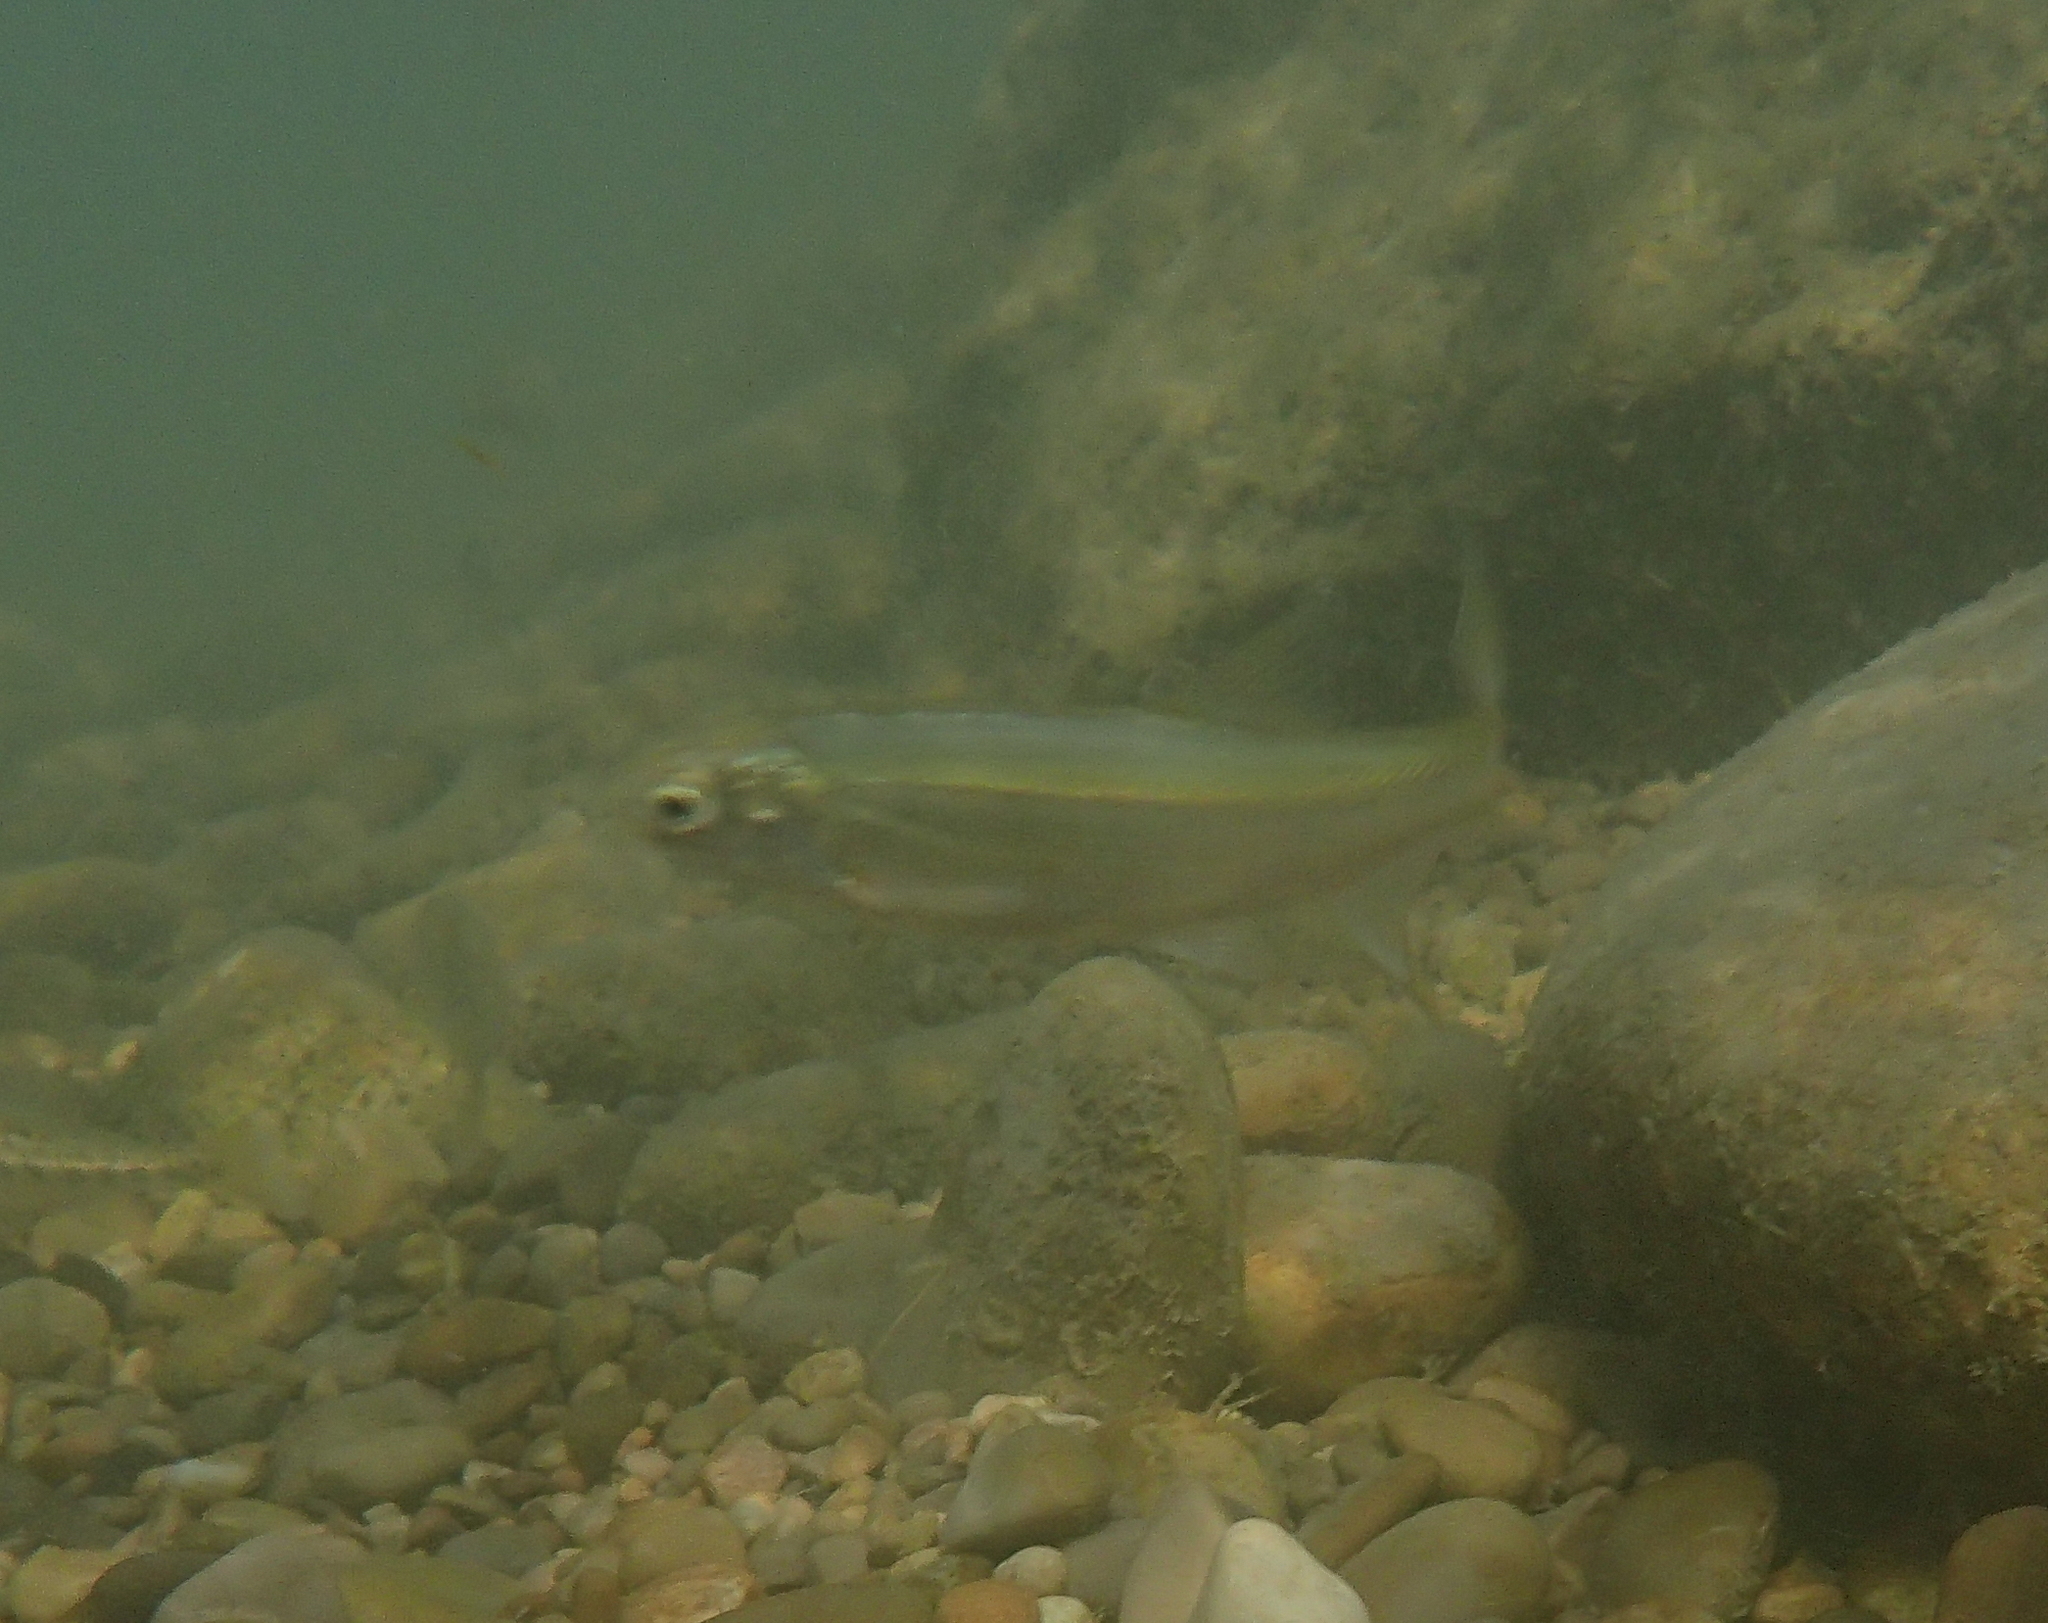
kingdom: Animalia
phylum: Chordata
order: Cypriniformes
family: Cyprinidae
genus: Alburnus
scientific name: Alburnus alburnus
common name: Bleak
